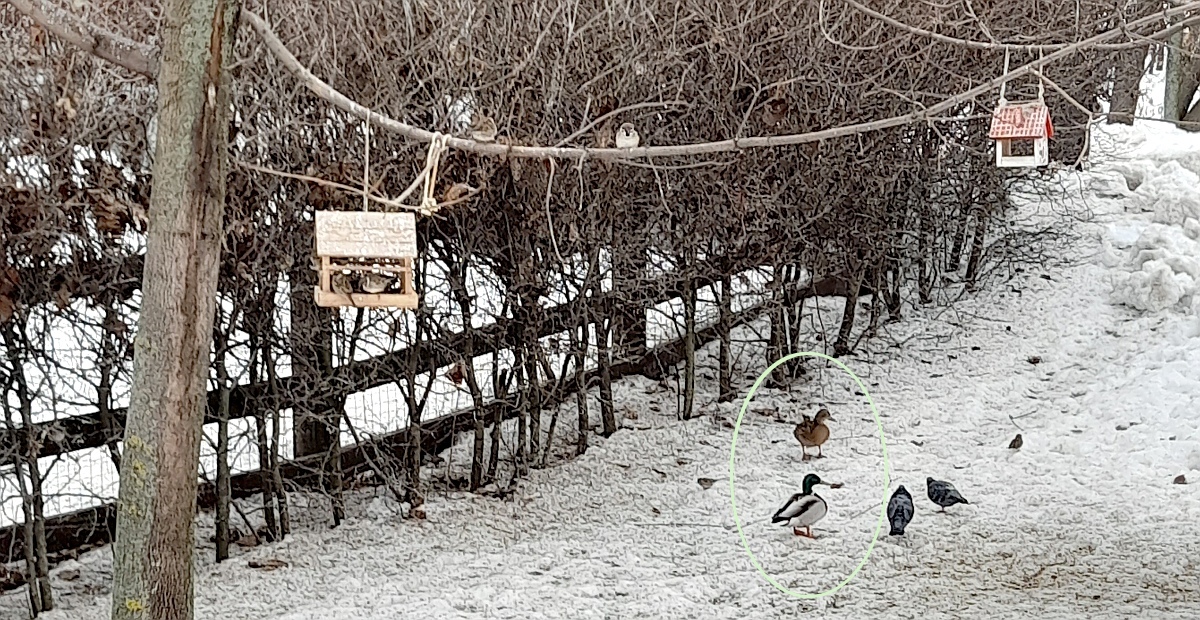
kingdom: Animalia
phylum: Chordata
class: Aves
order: Anseriformes
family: Anatidae
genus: Anas
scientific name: Anas platyrhynchos
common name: Mallard
